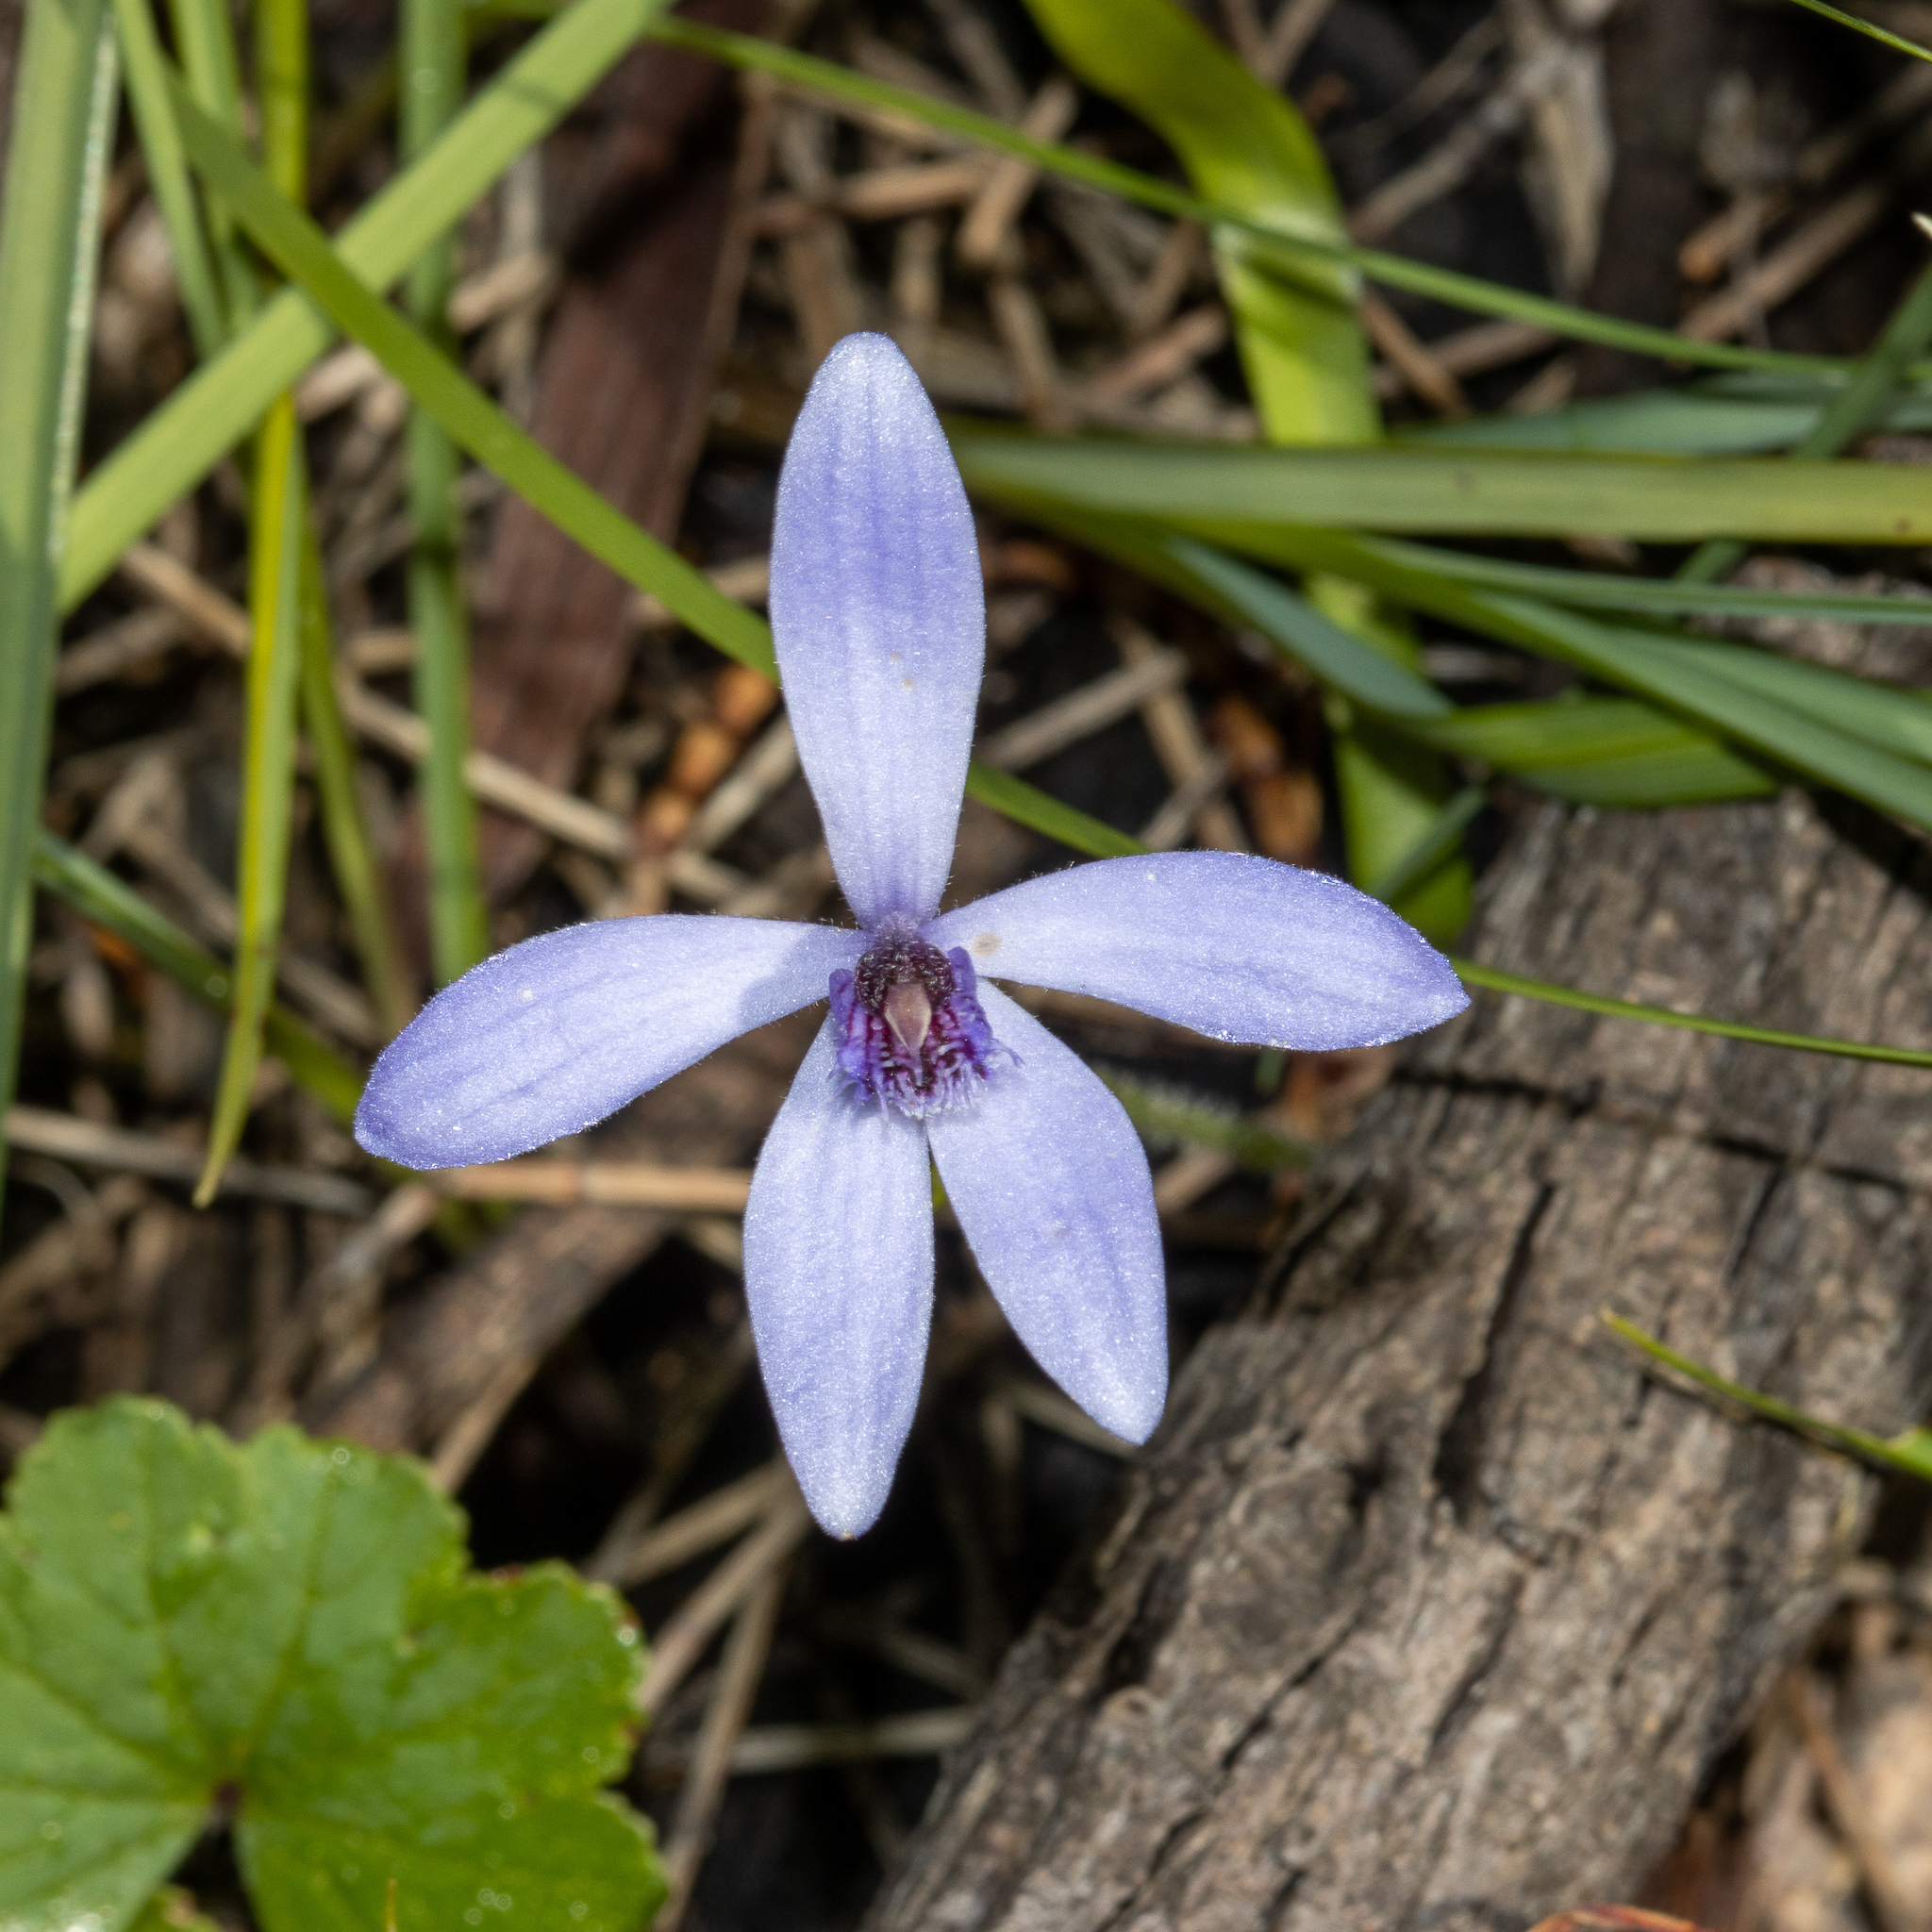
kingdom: Plantae
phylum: Tracheophyta
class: Liliopsida
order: Asparagales
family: Orchidaceae
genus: Pheladenia
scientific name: Pheladenia deformis
